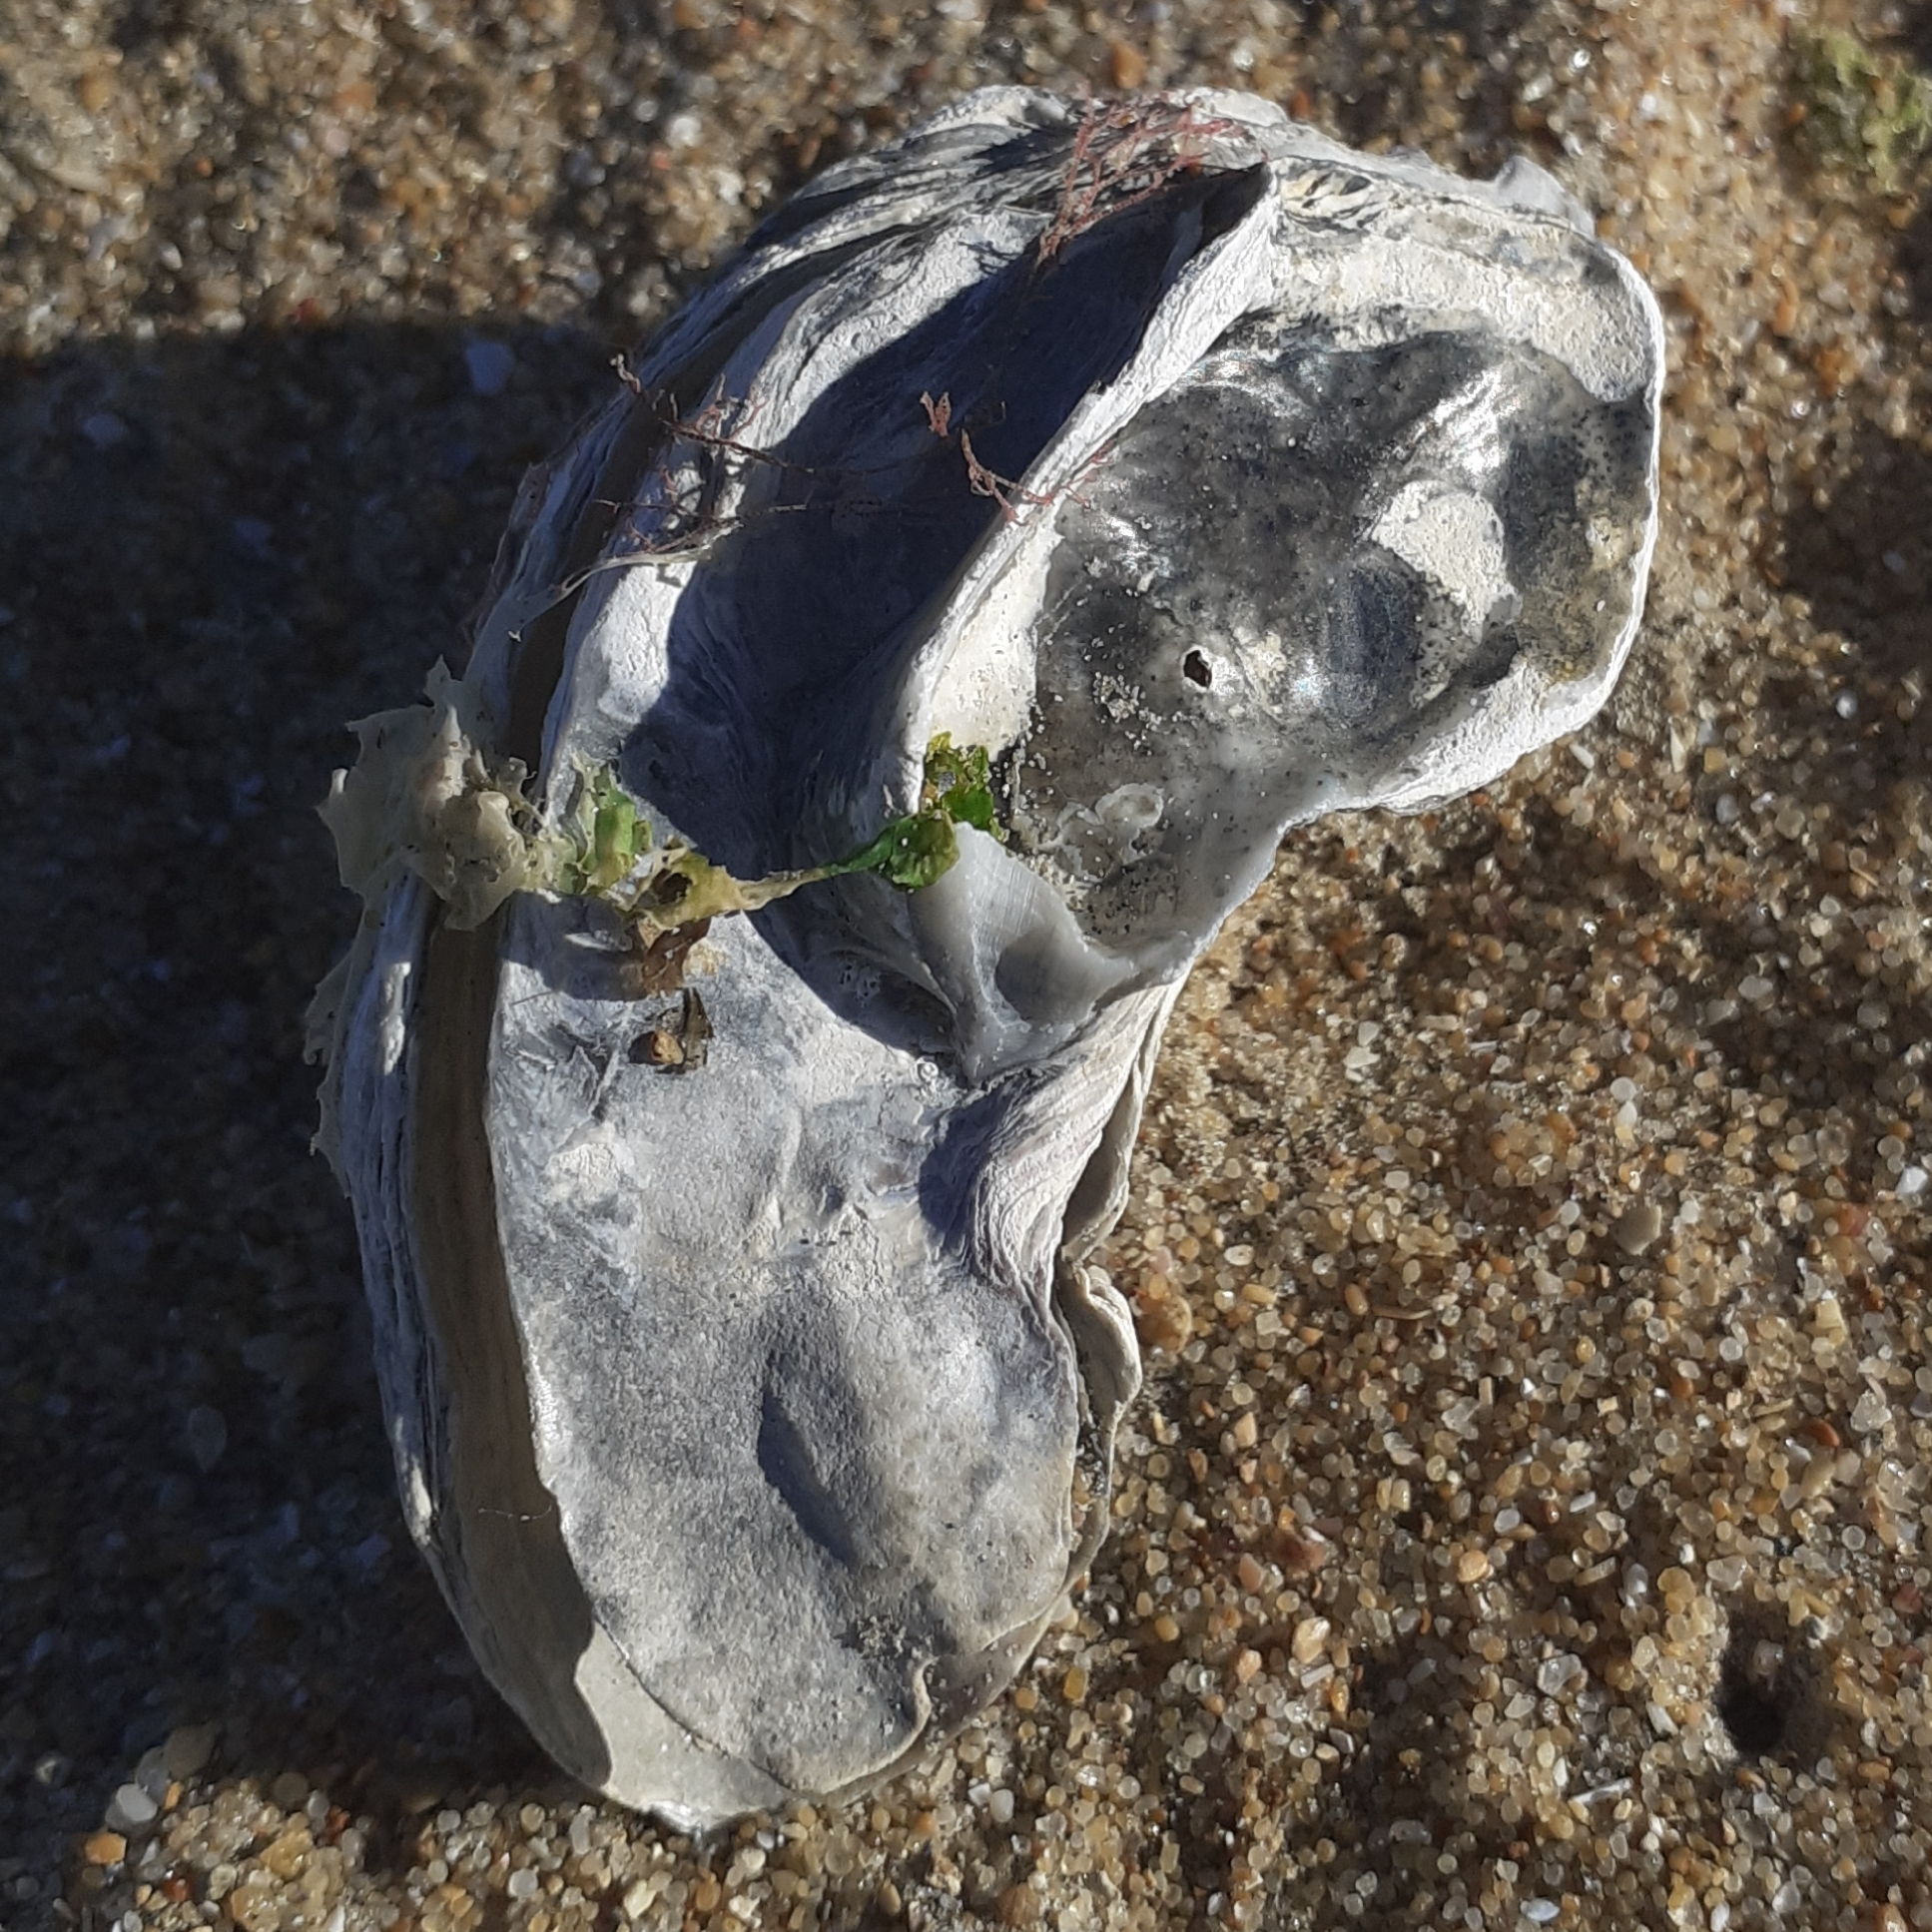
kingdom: Animalia
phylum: Mollusca
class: Bivalvia
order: Ostreida
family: Ostreidae
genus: Magallana
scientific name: Magallana gigas
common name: Pacific oyster
